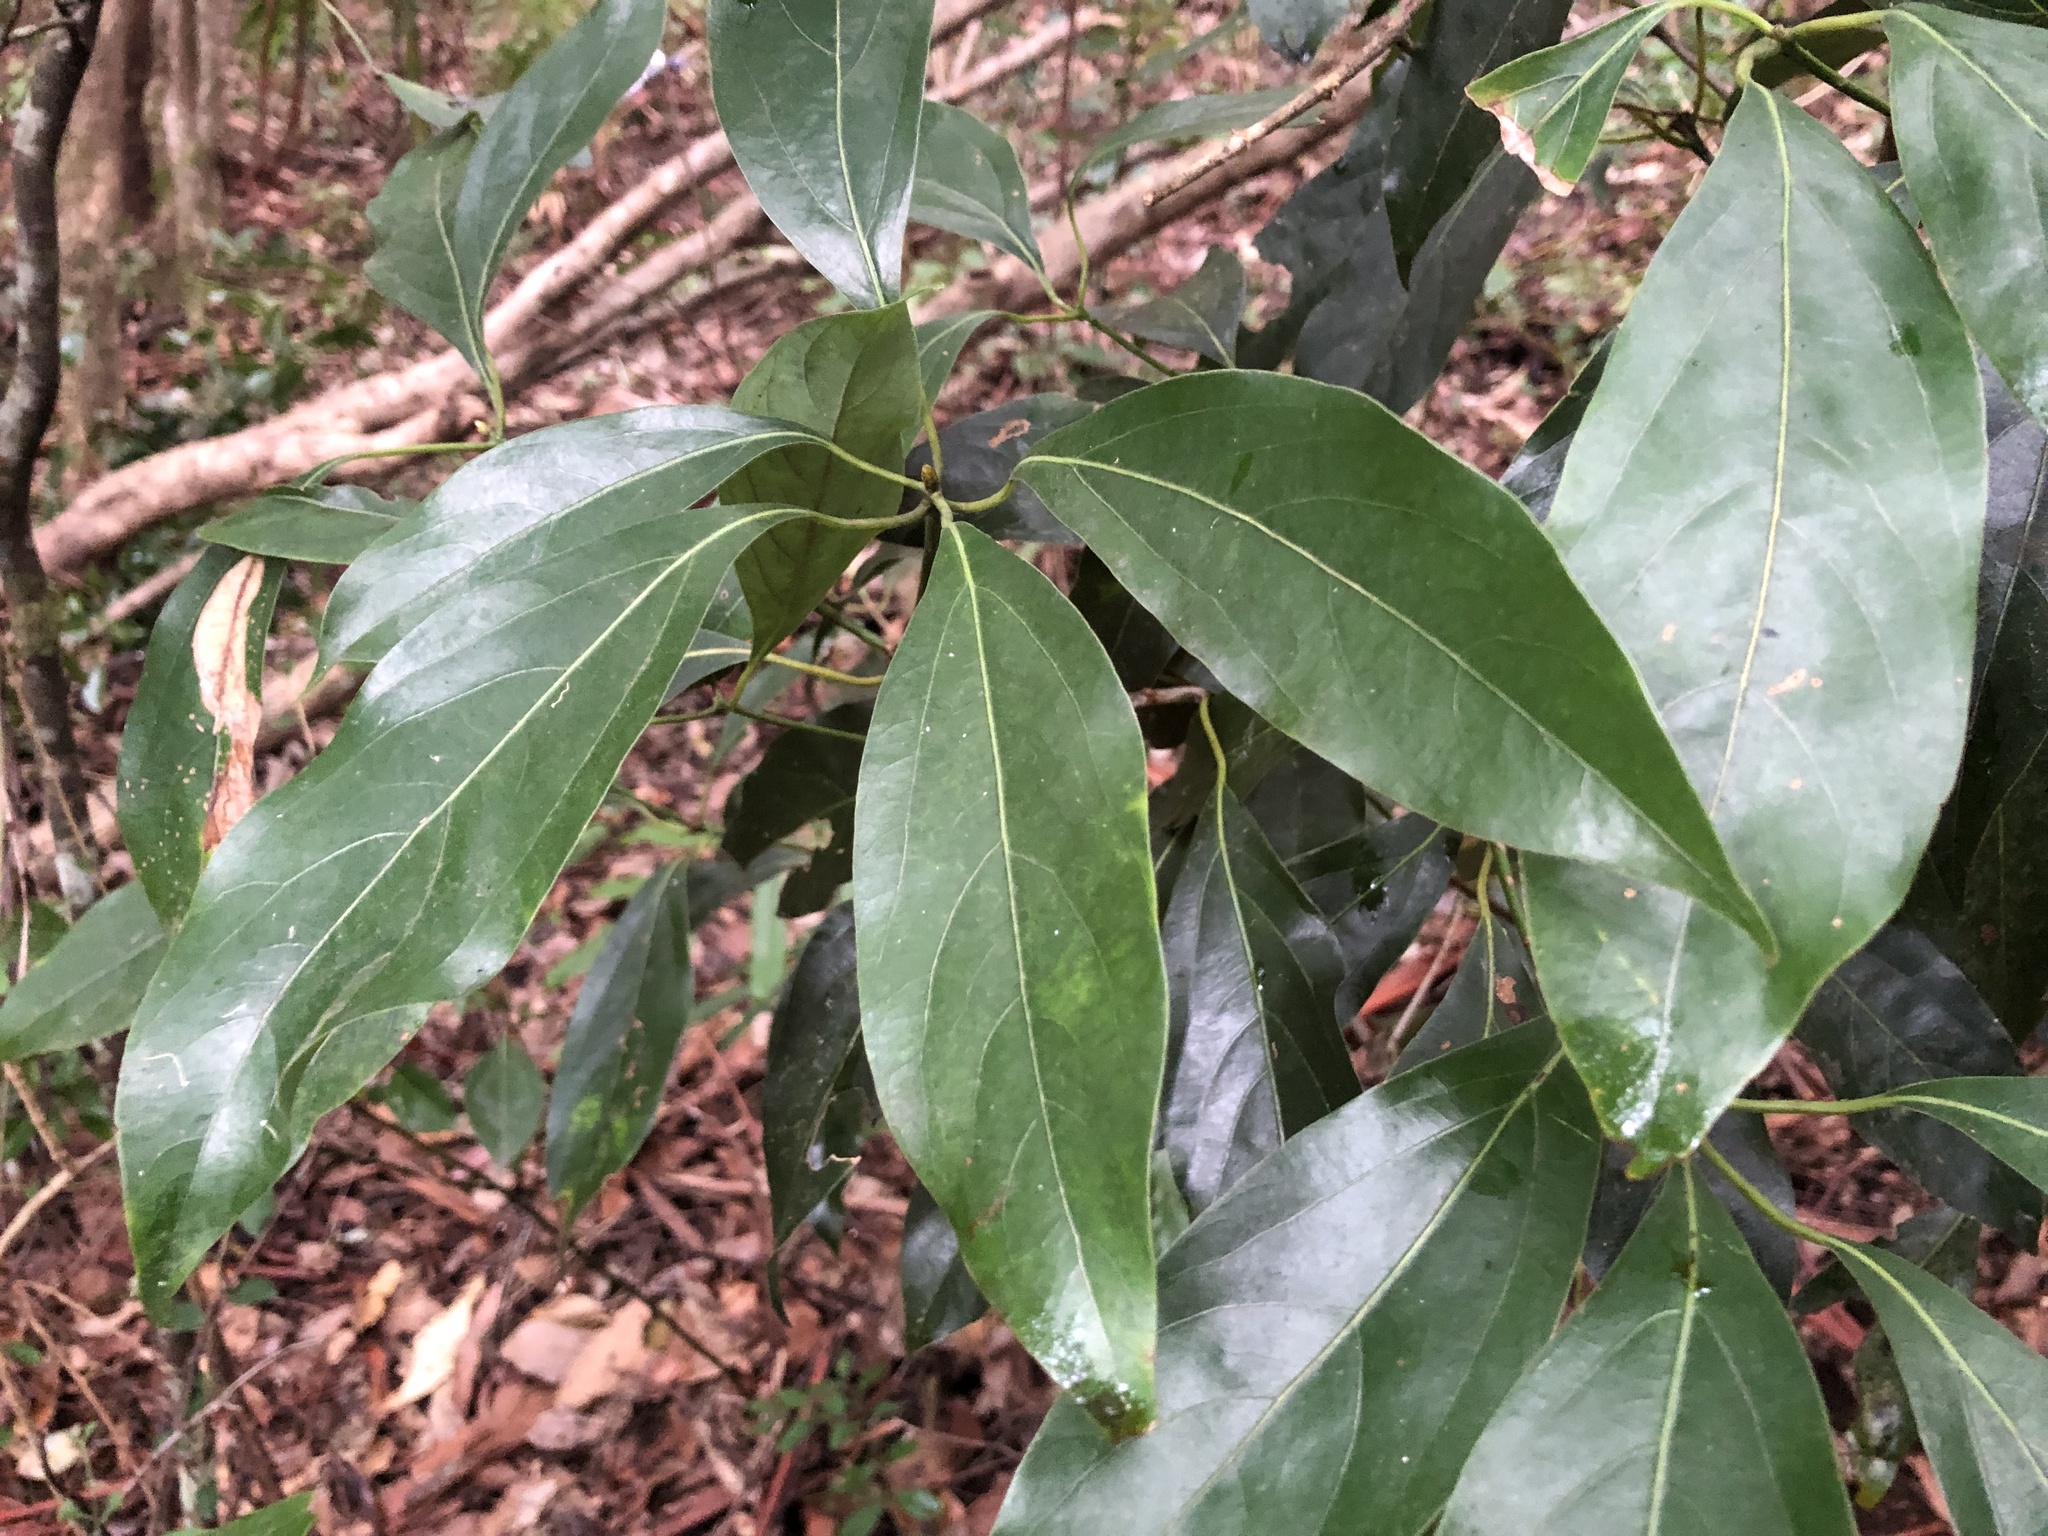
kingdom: Plantae
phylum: Tracheophyta
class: Magnoliopsida
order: Laurales
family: Lauraceae
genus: Neolitsea
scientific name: Neolitsea australiensis
